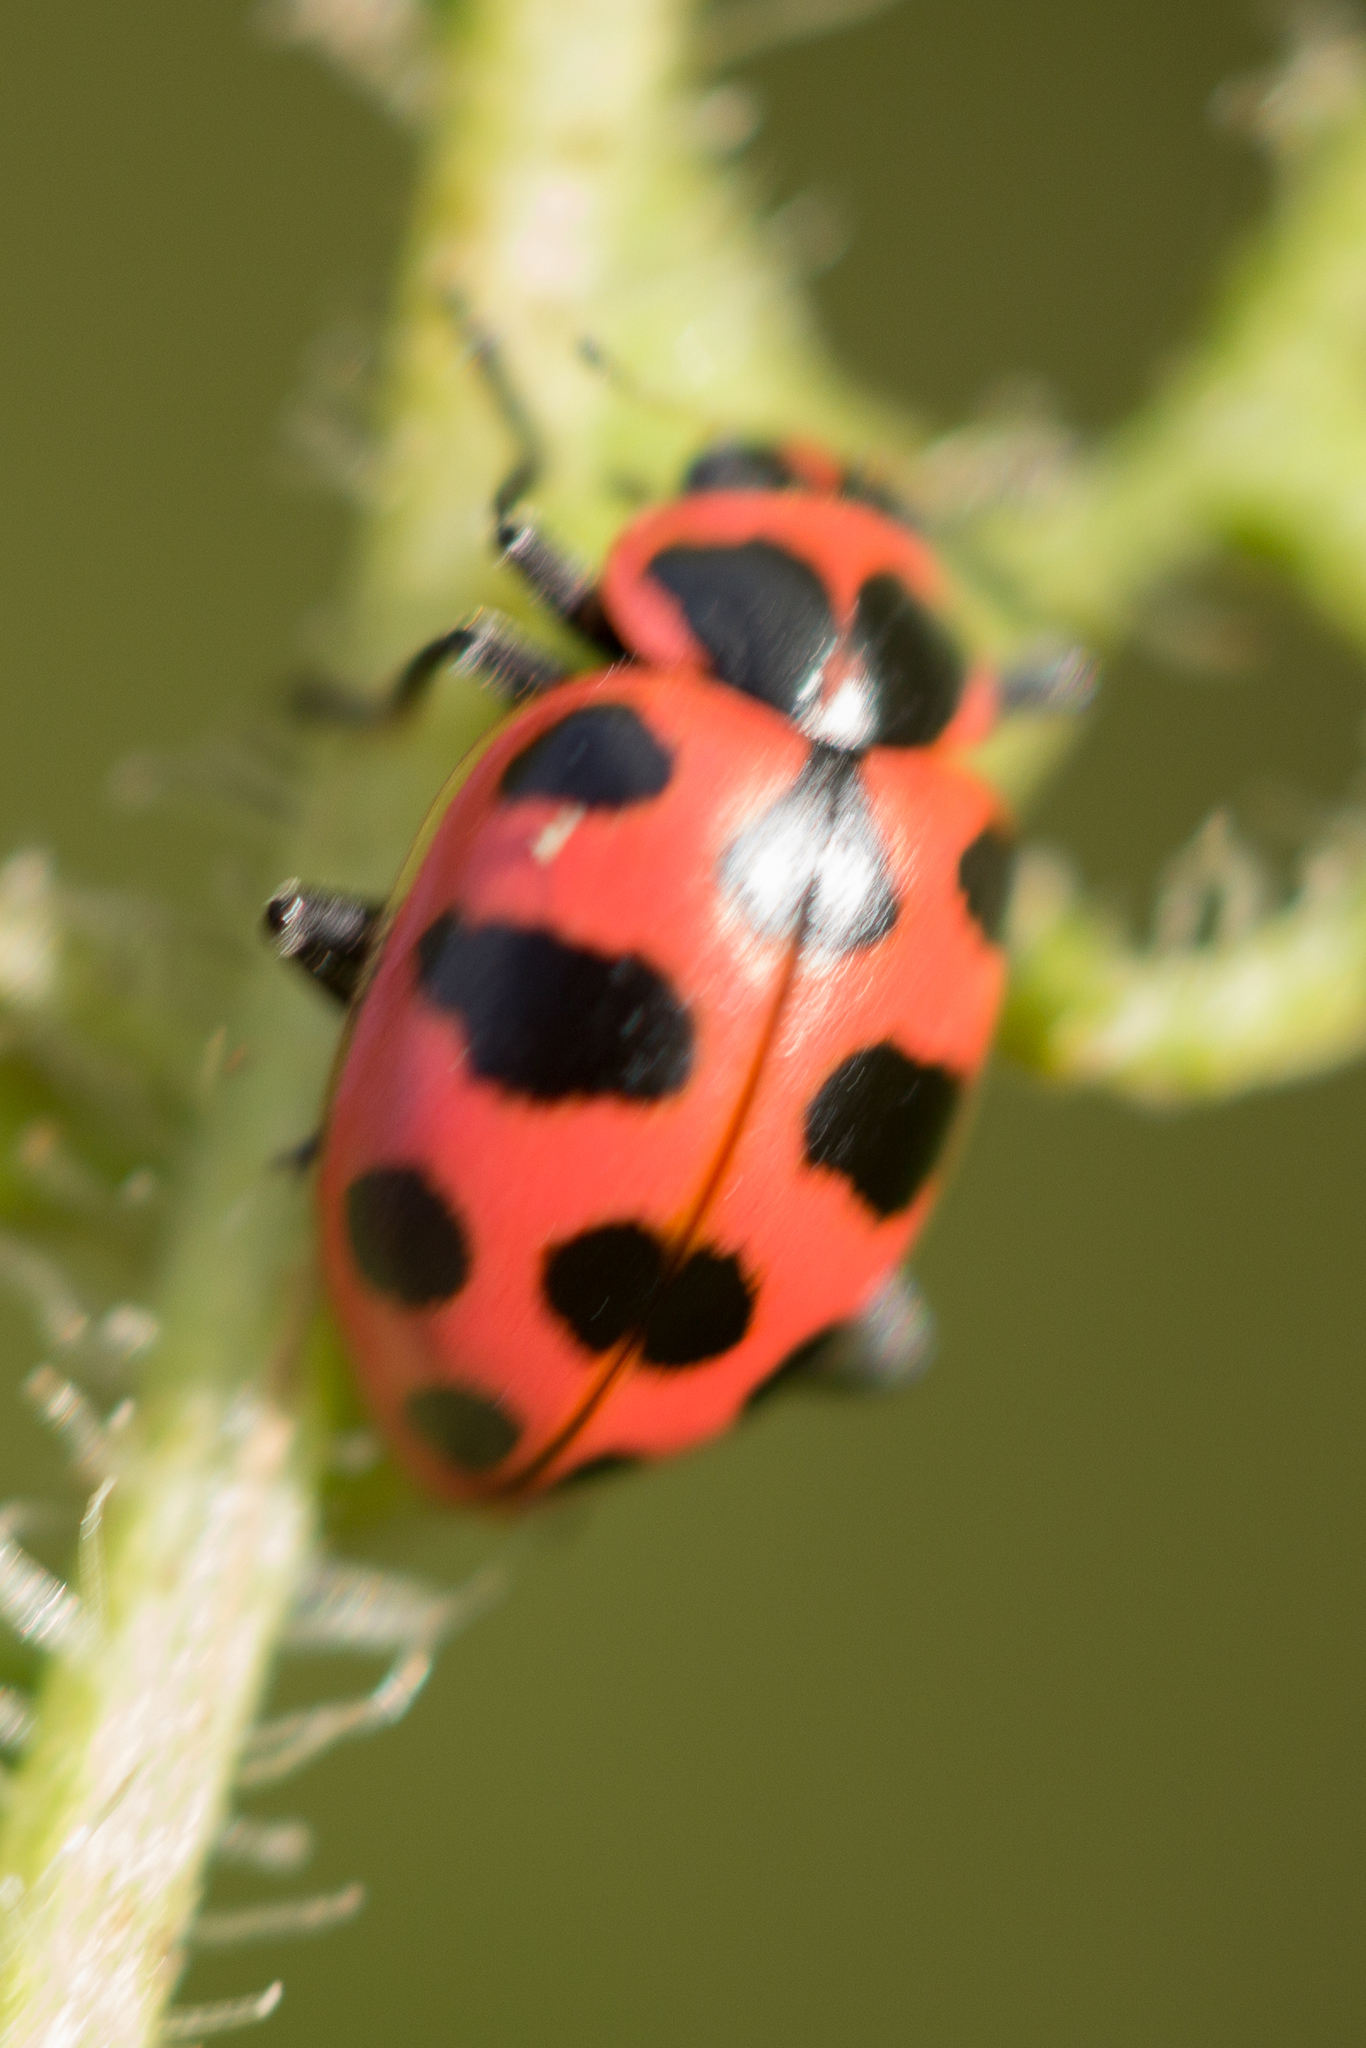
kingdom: Animalia
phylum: Arthropoda
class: Insecta
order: Coleoptera
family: Coccinellidae
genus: Coleomegilla
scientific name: Coleomegilla maculata
